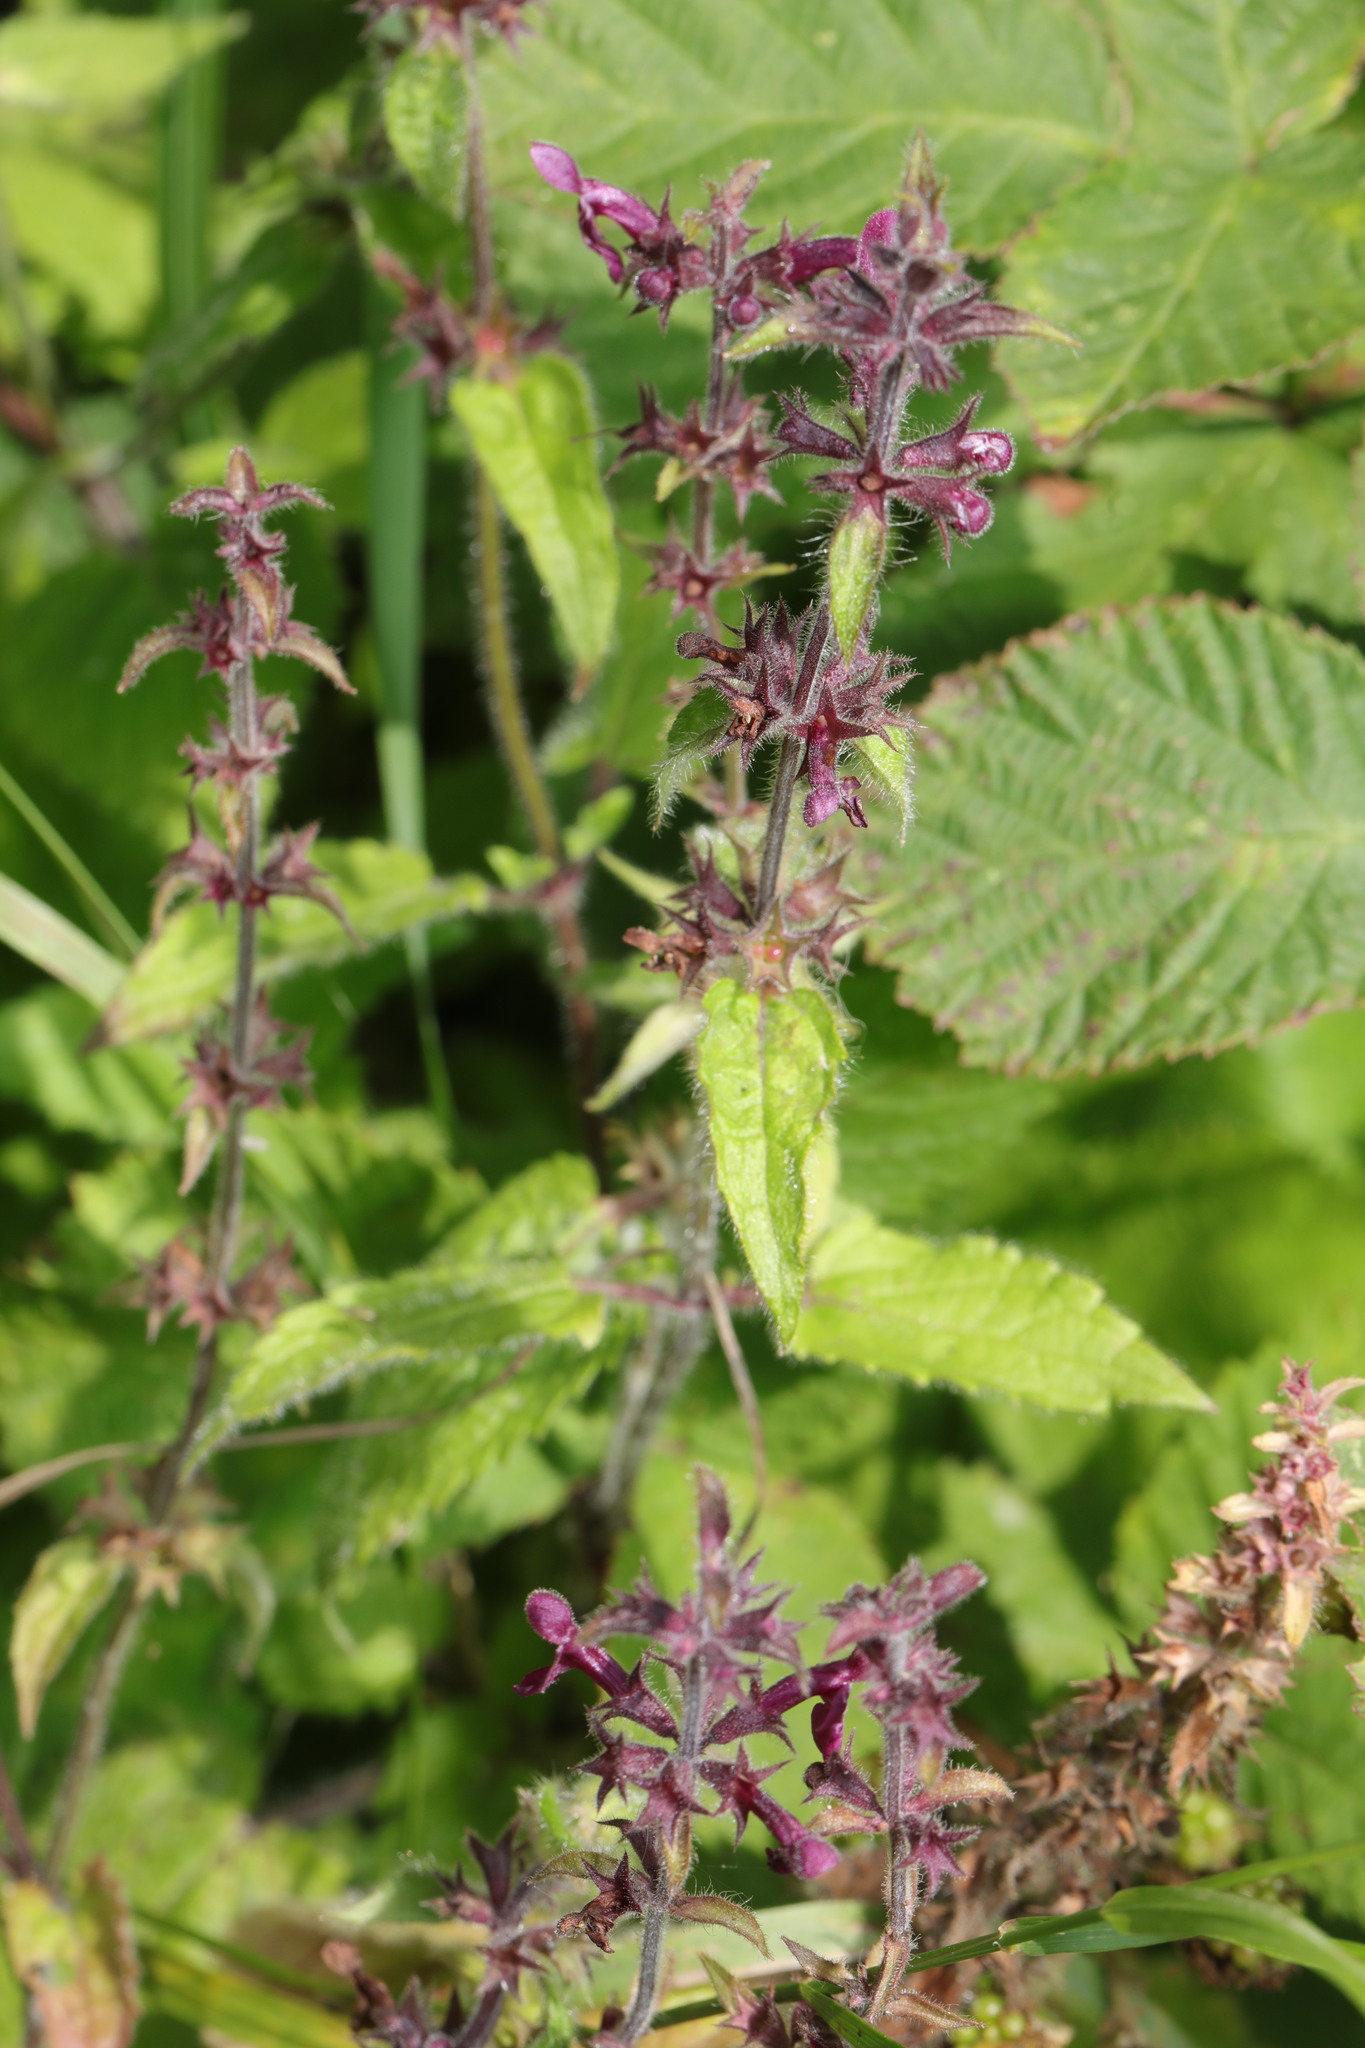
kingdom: Plantae
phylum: Tracheophyta
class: Magnoliopsida
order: Lamiales
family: Lamiaceae
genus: Stachys
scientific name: Stachys sylvatica
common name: Hedge woundwort
